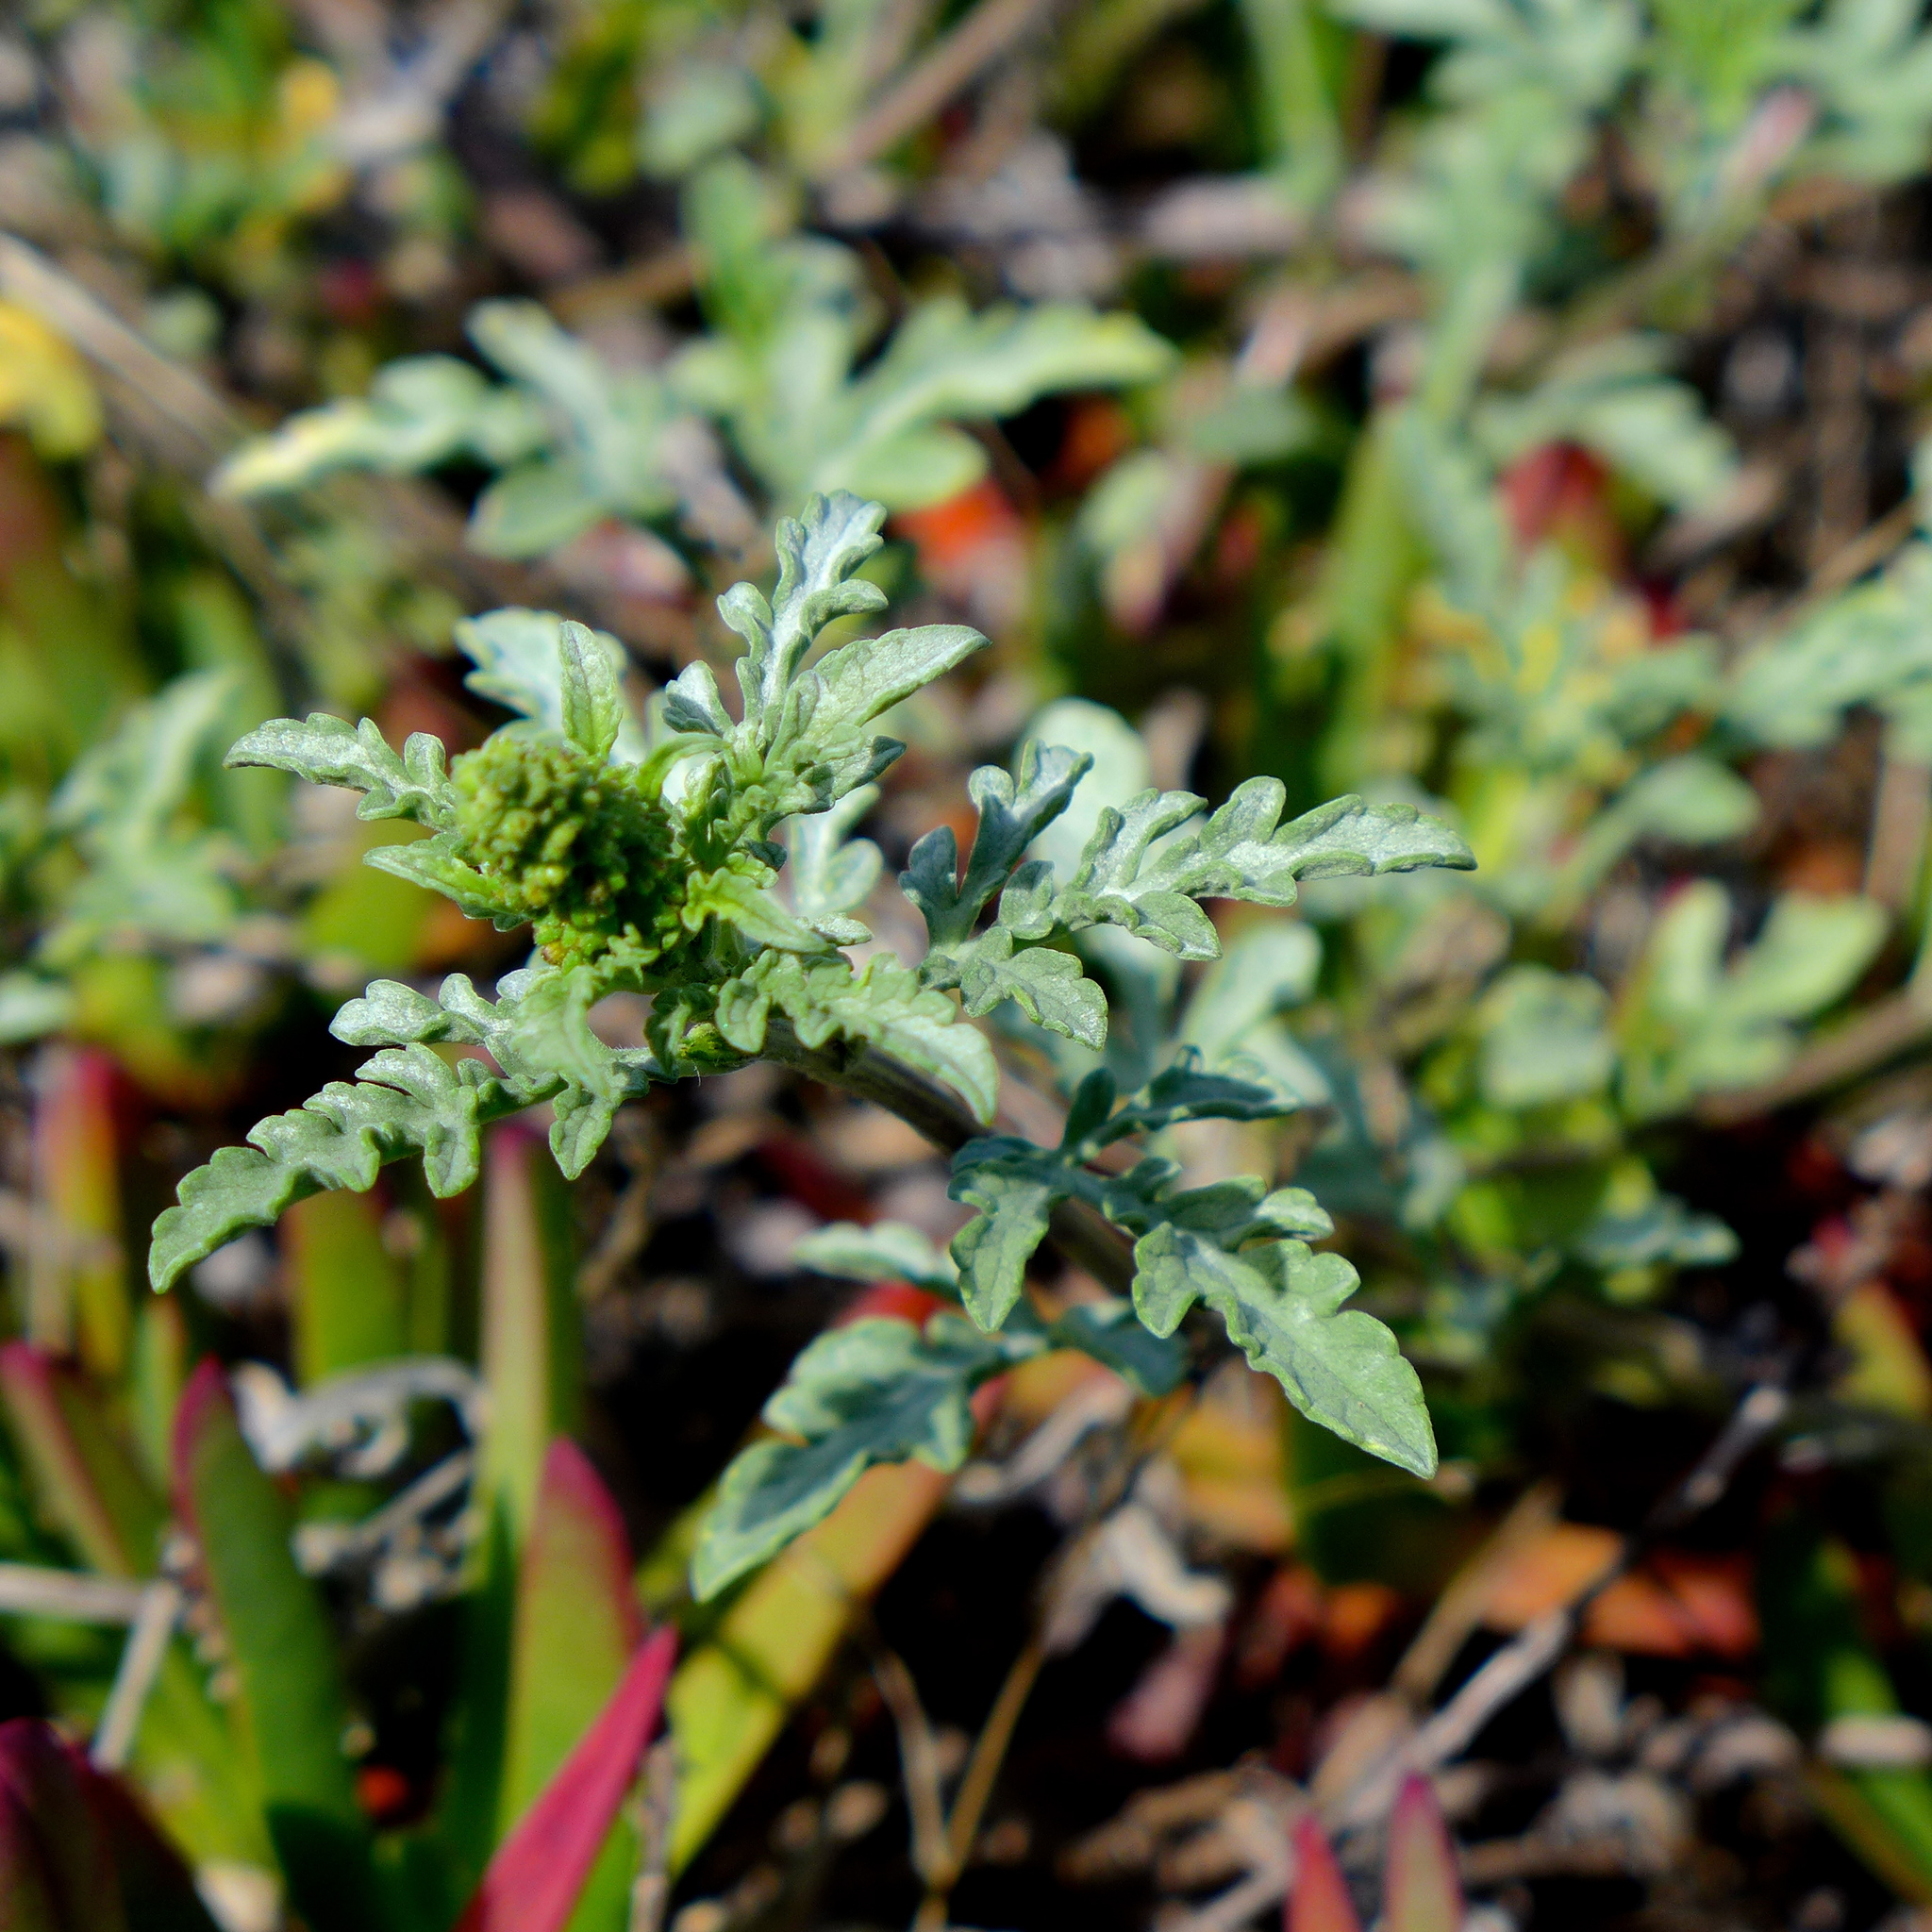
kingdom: Plantae
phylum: Tracheophyta
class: Magnoliopsida
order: Asterales
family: Asteraceae
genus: Ambrosia
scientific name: Ambrosia chamissonis
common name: Beachbur
